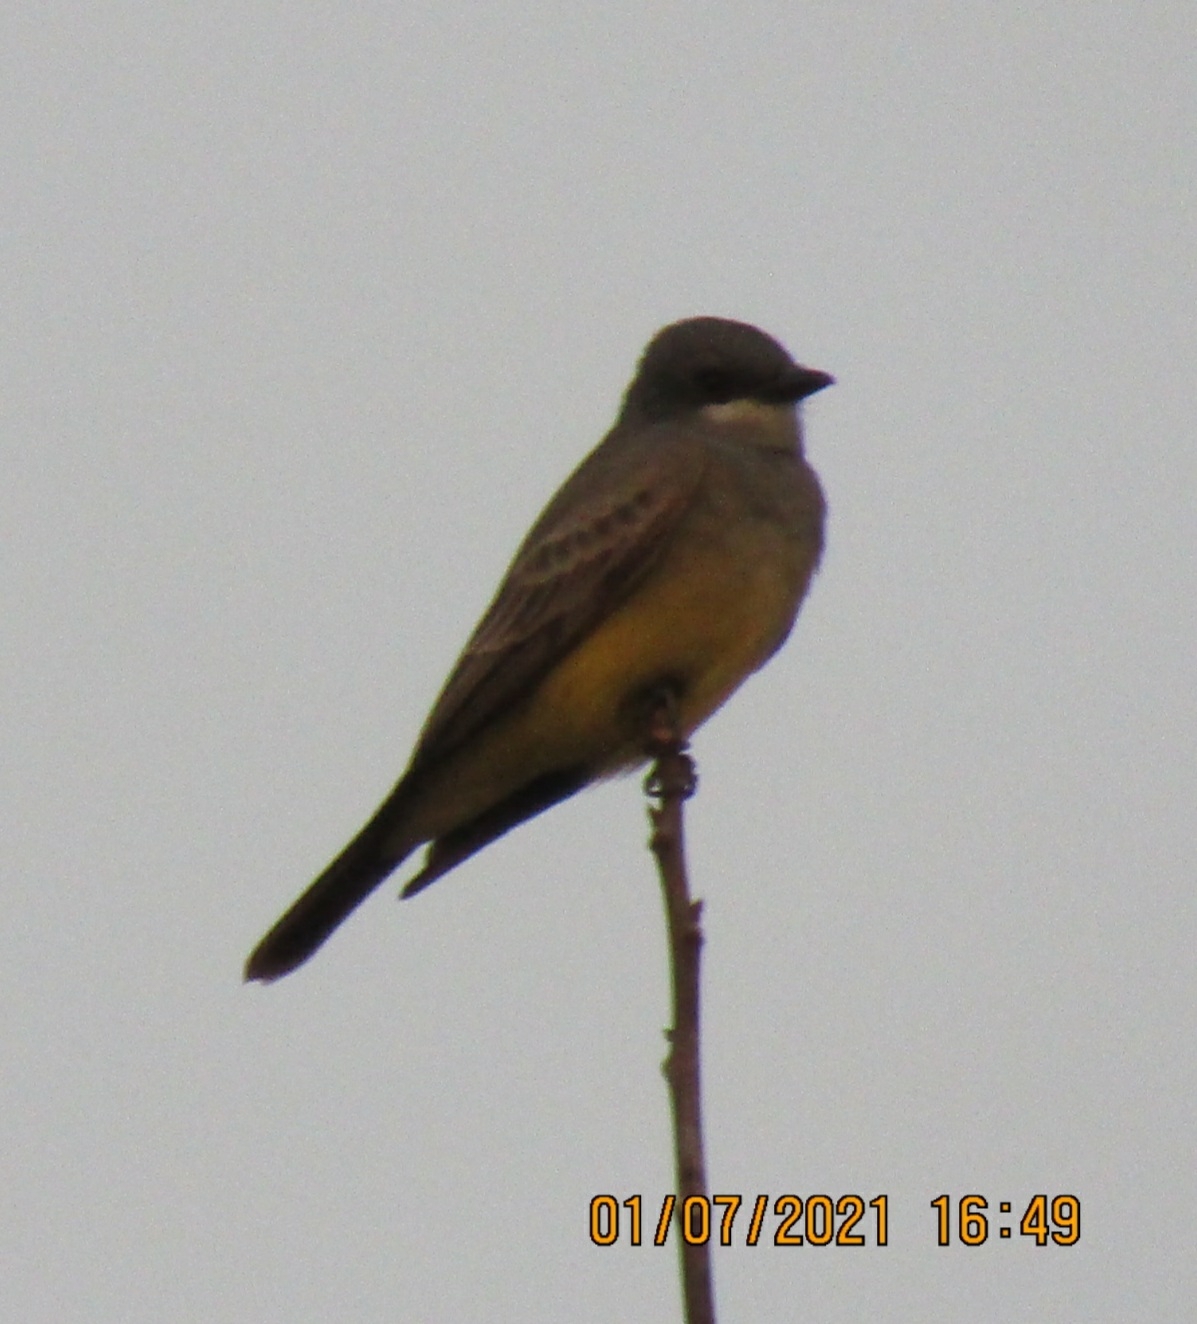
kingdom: Animalia
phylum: Chordata
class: Aves
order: Passeriformes
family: Tyrannidae
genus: Tyrannus
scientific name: Tyrannus vociferans
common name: Cassin's kingbird
